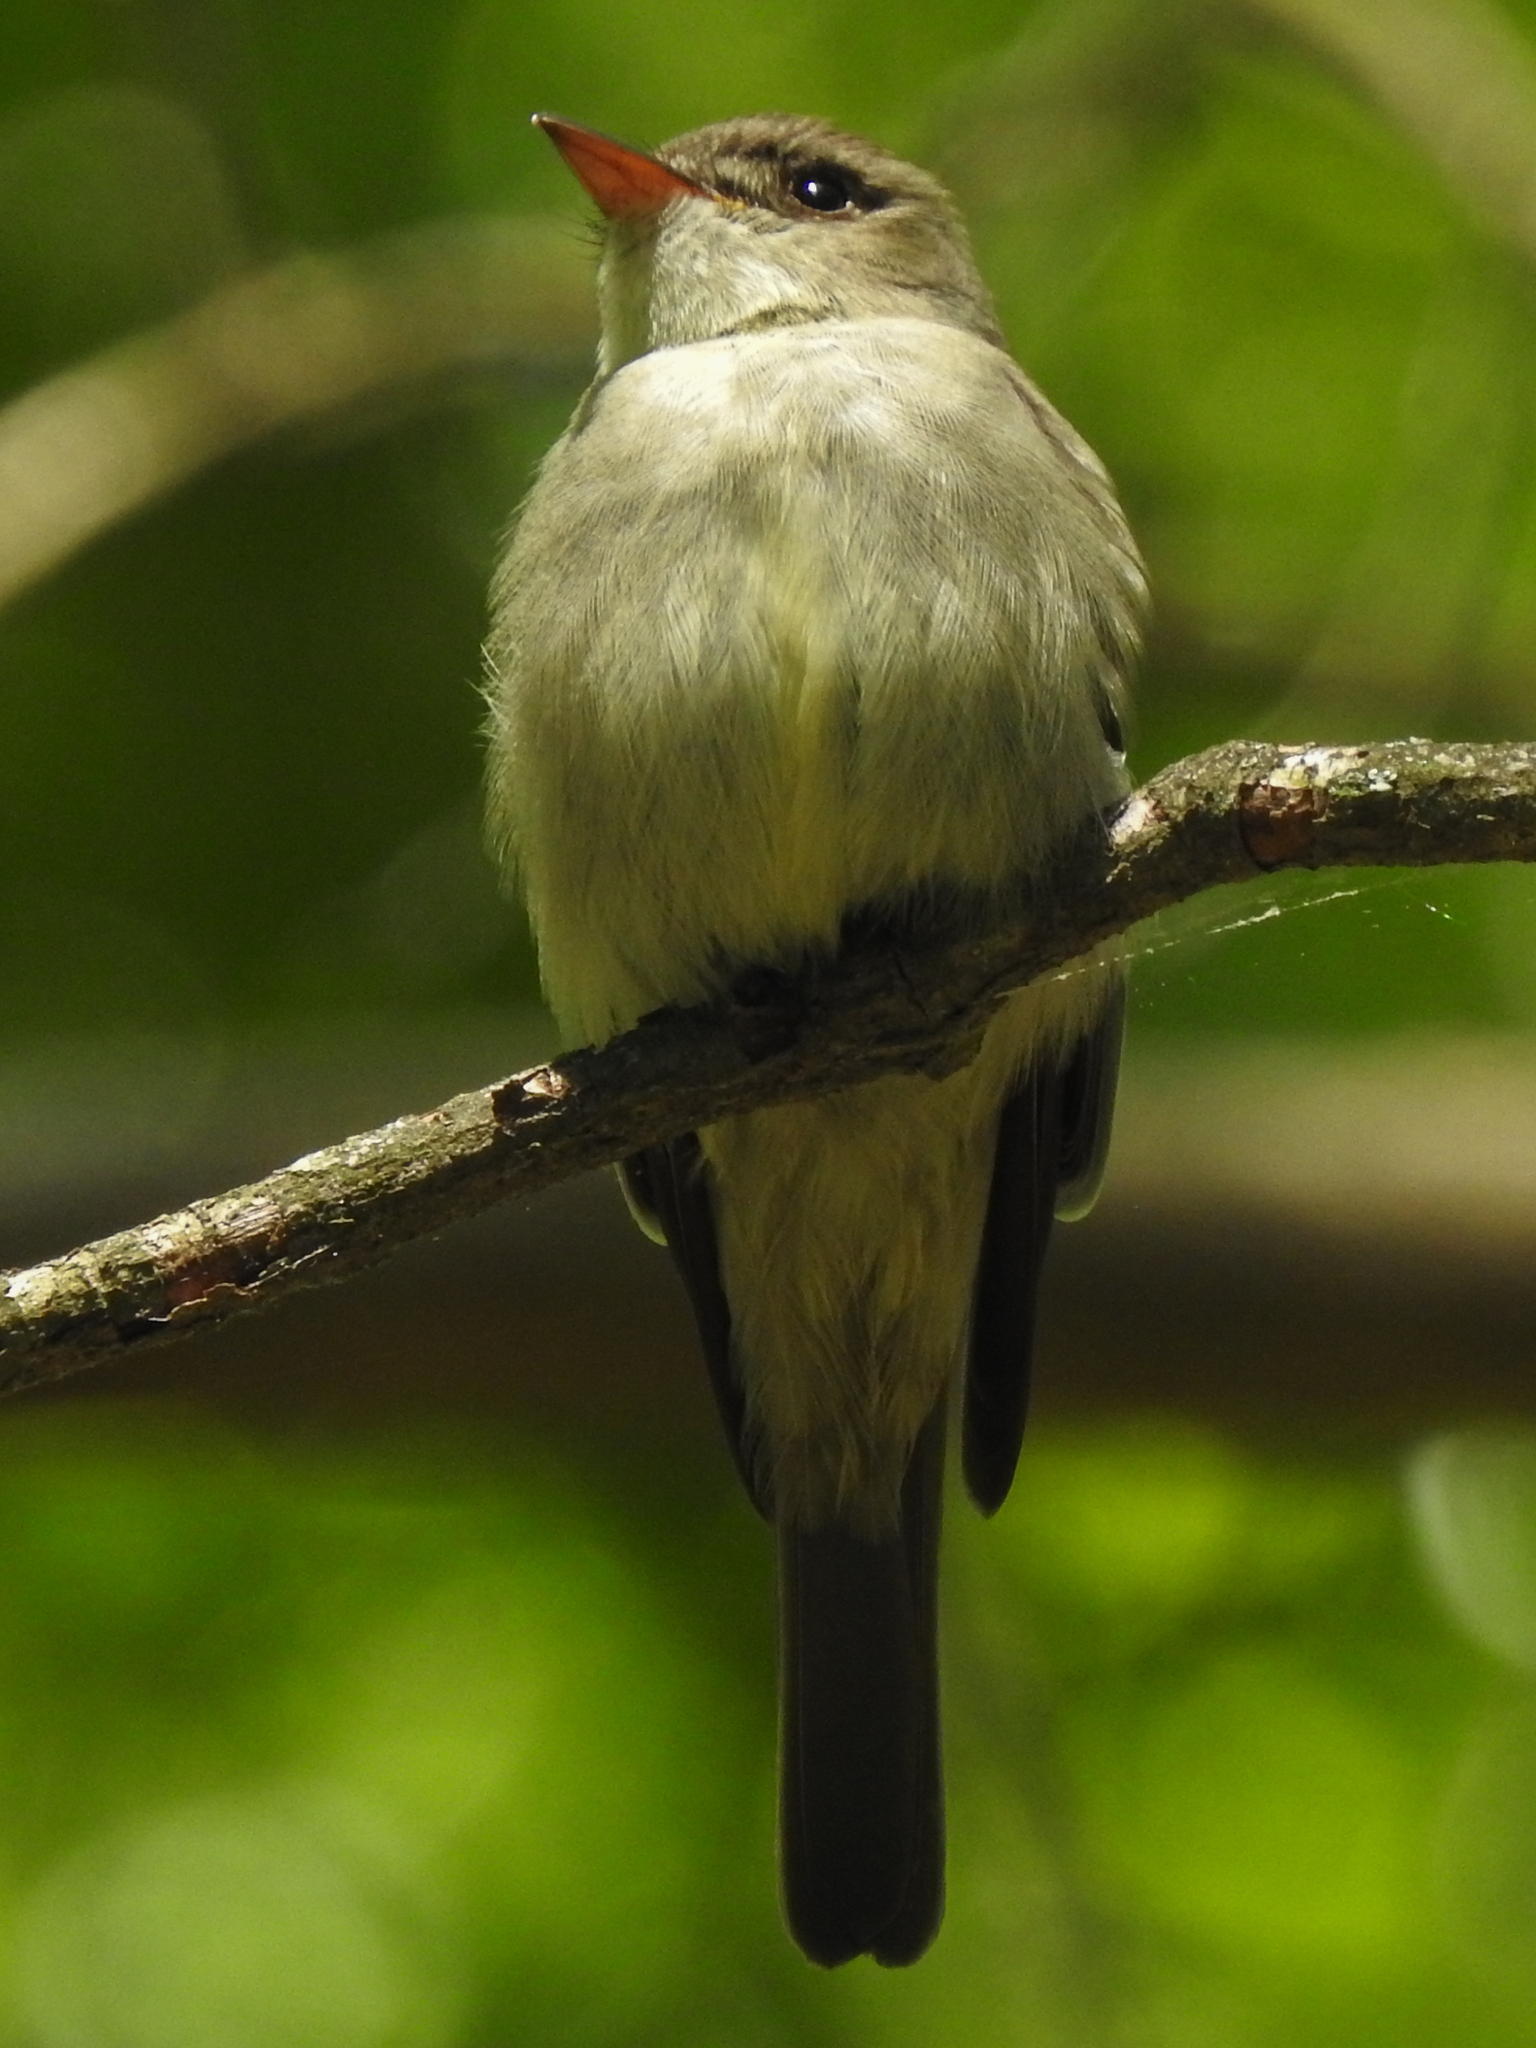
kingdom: Animalia
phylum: Chordata
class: Aves
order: Passeriformes
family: Tyrannidae
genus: Contopus
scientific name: Contopus virens
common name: Eastern wood-pewee
